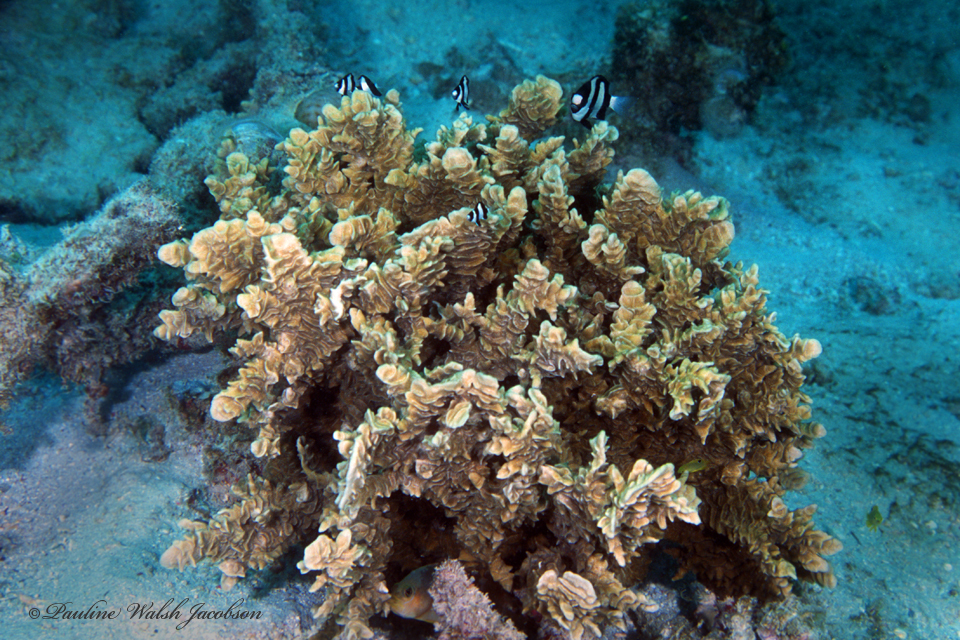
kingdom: Animalia
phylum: Cnidaria
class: Anthozoa
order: Scleractinia
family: Pachyseridae
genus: Pachyseris
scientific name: Pachyseris rugosa
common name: Serpent coral
